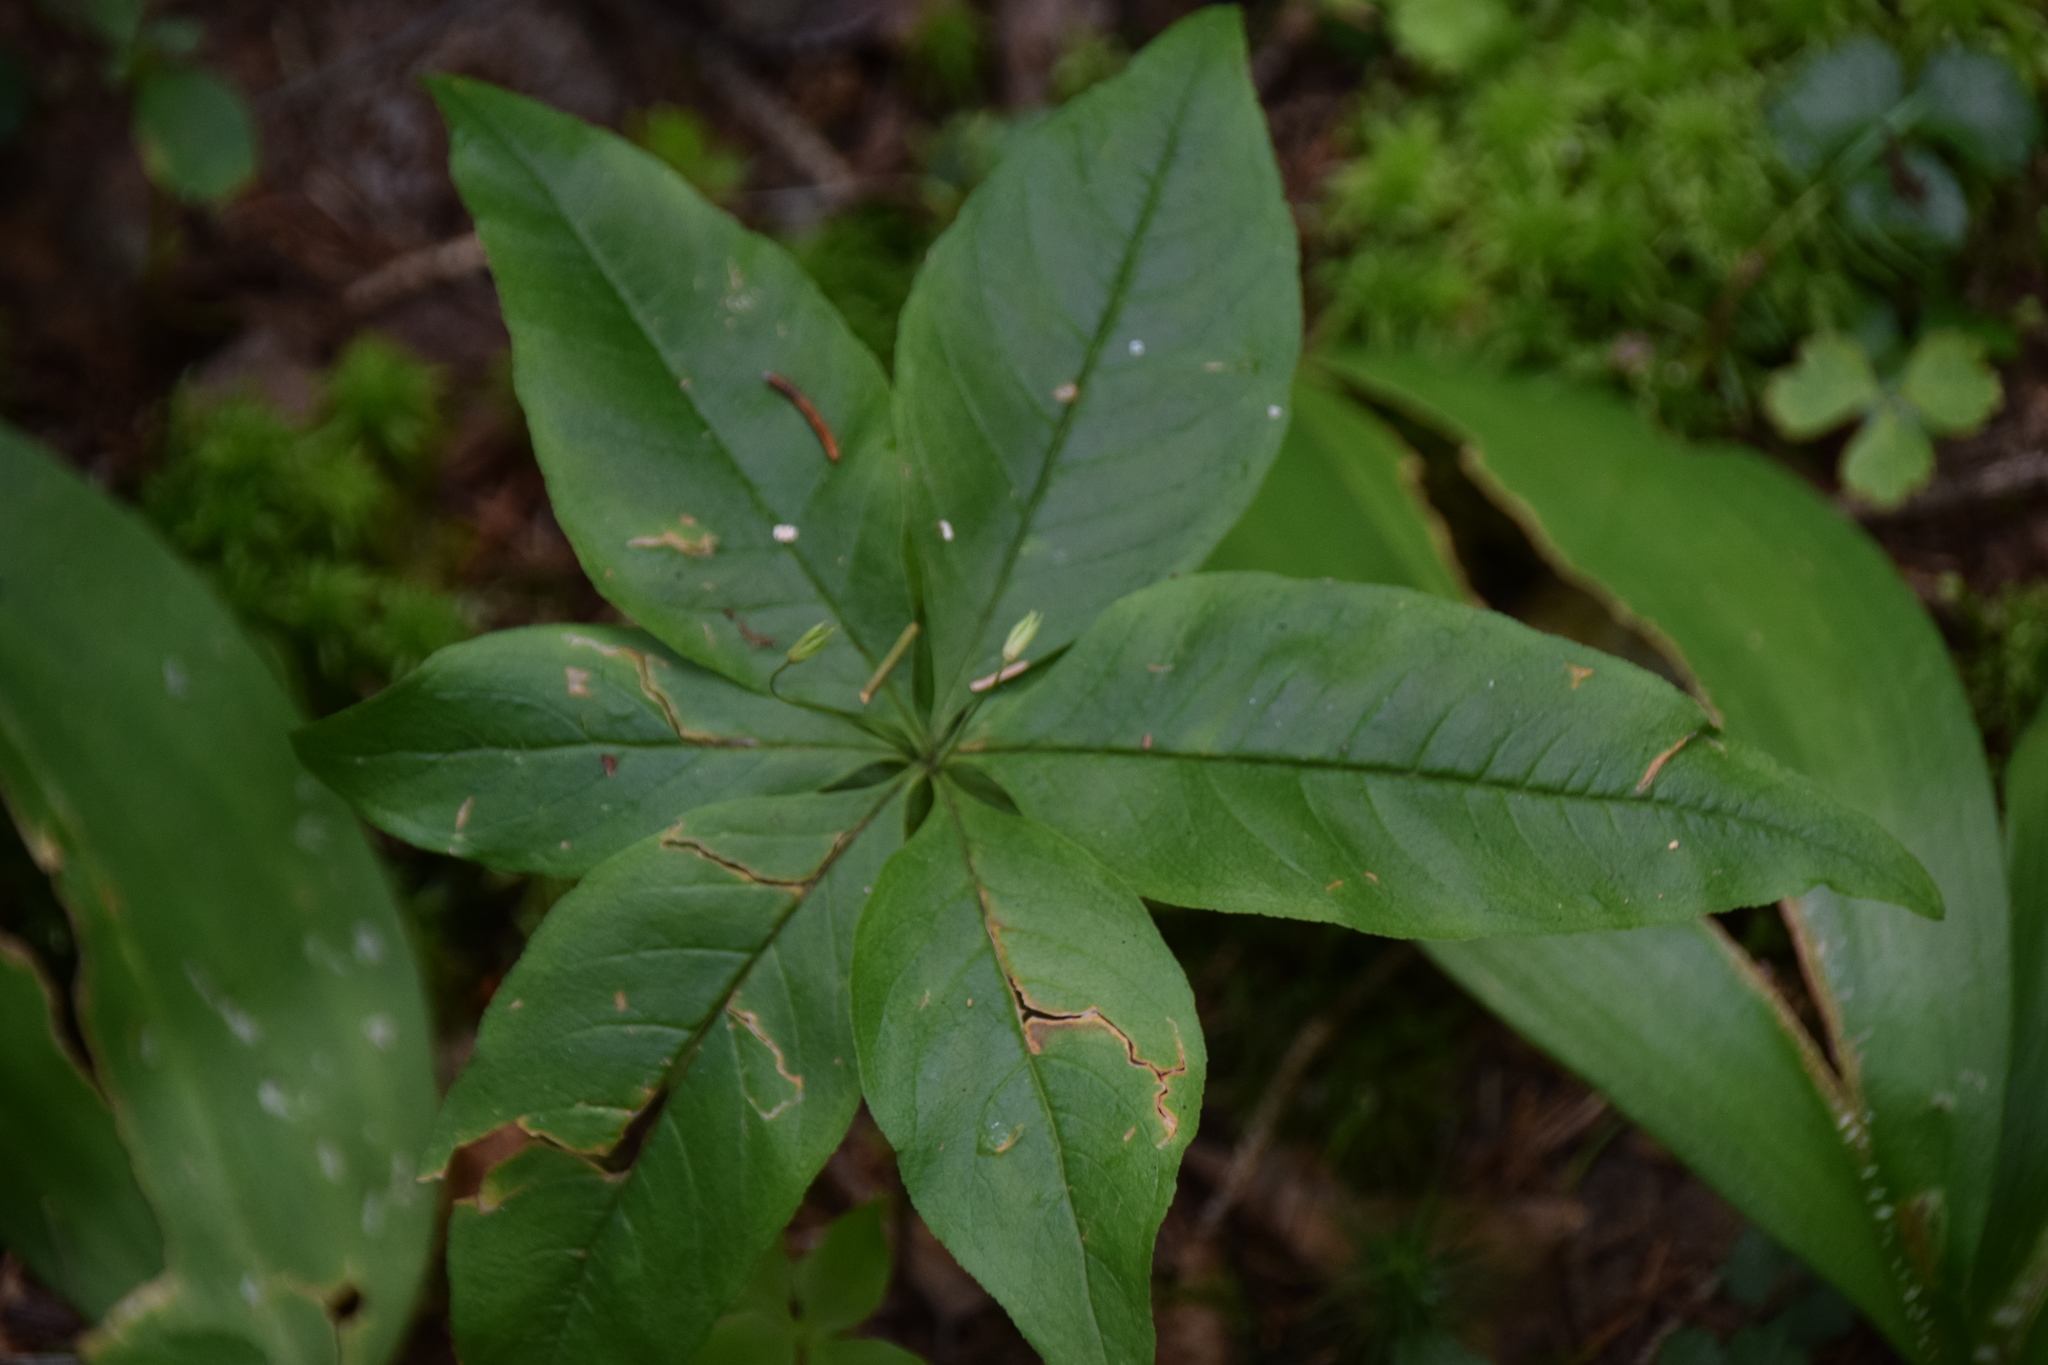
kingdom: Plantae
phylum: Tracheophyta
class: Magnoliopsida
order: Ericales
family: Primulaceae
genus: Lysimachia
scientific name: Lysimachia borealis
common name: American starflower
